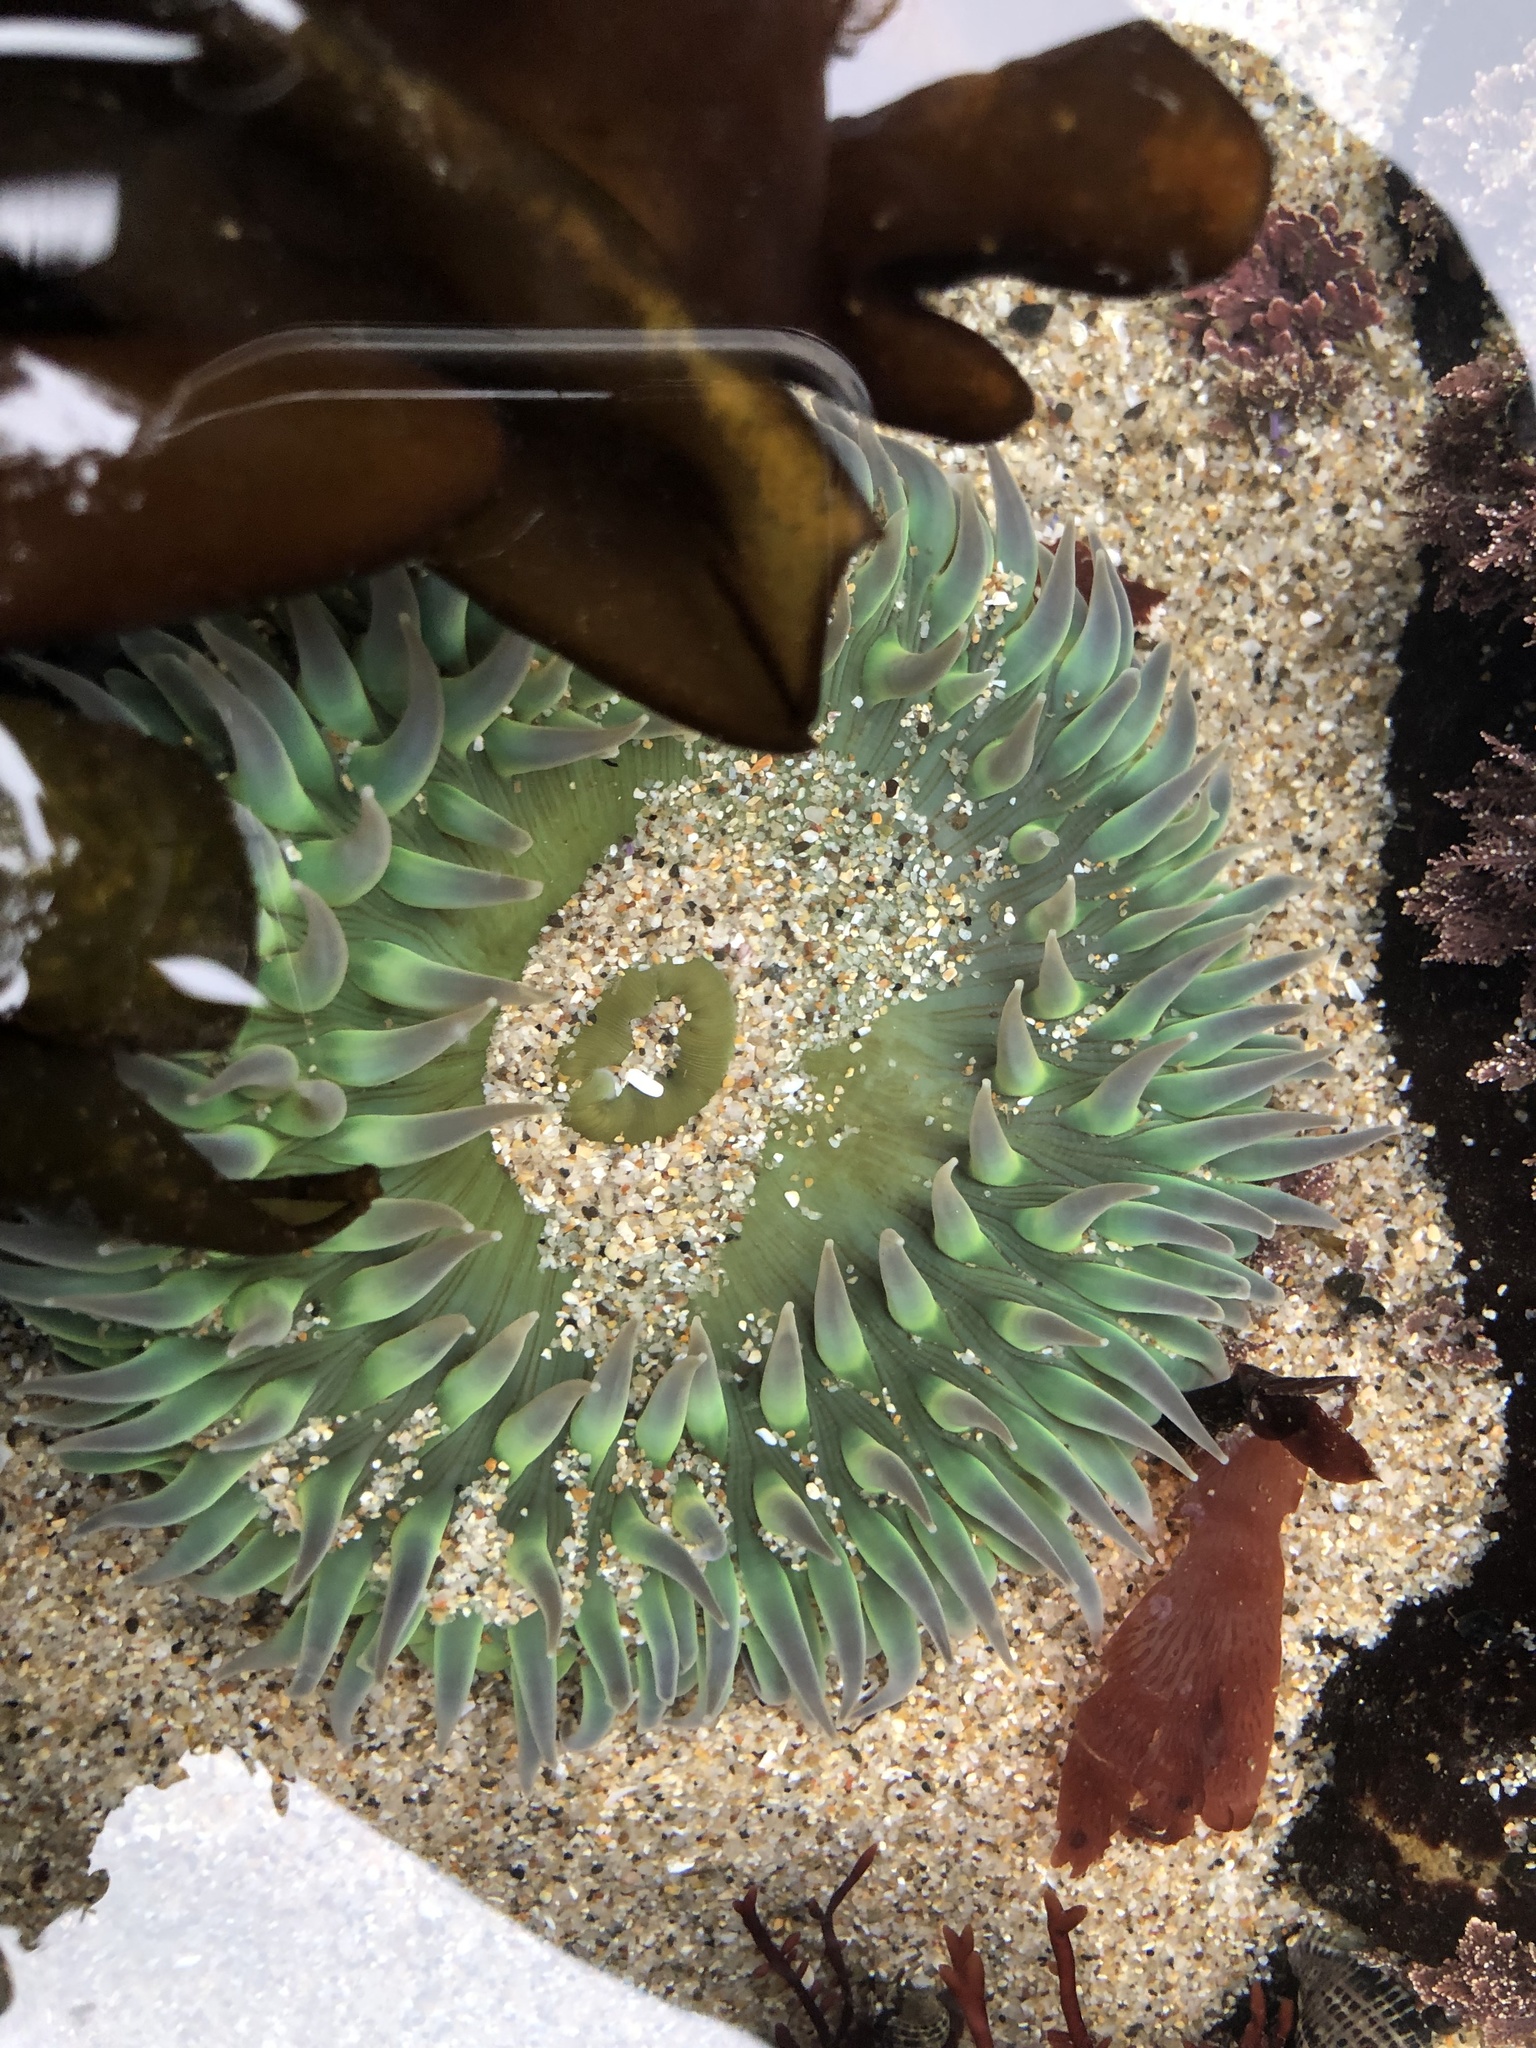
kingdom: Animalia
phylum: Cnidaria
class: Anthozoa
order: Actiniaria
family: Actiniidae
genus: Anthopleura
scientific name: Anthopleura xanthogrammica
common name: Giant green anemone
